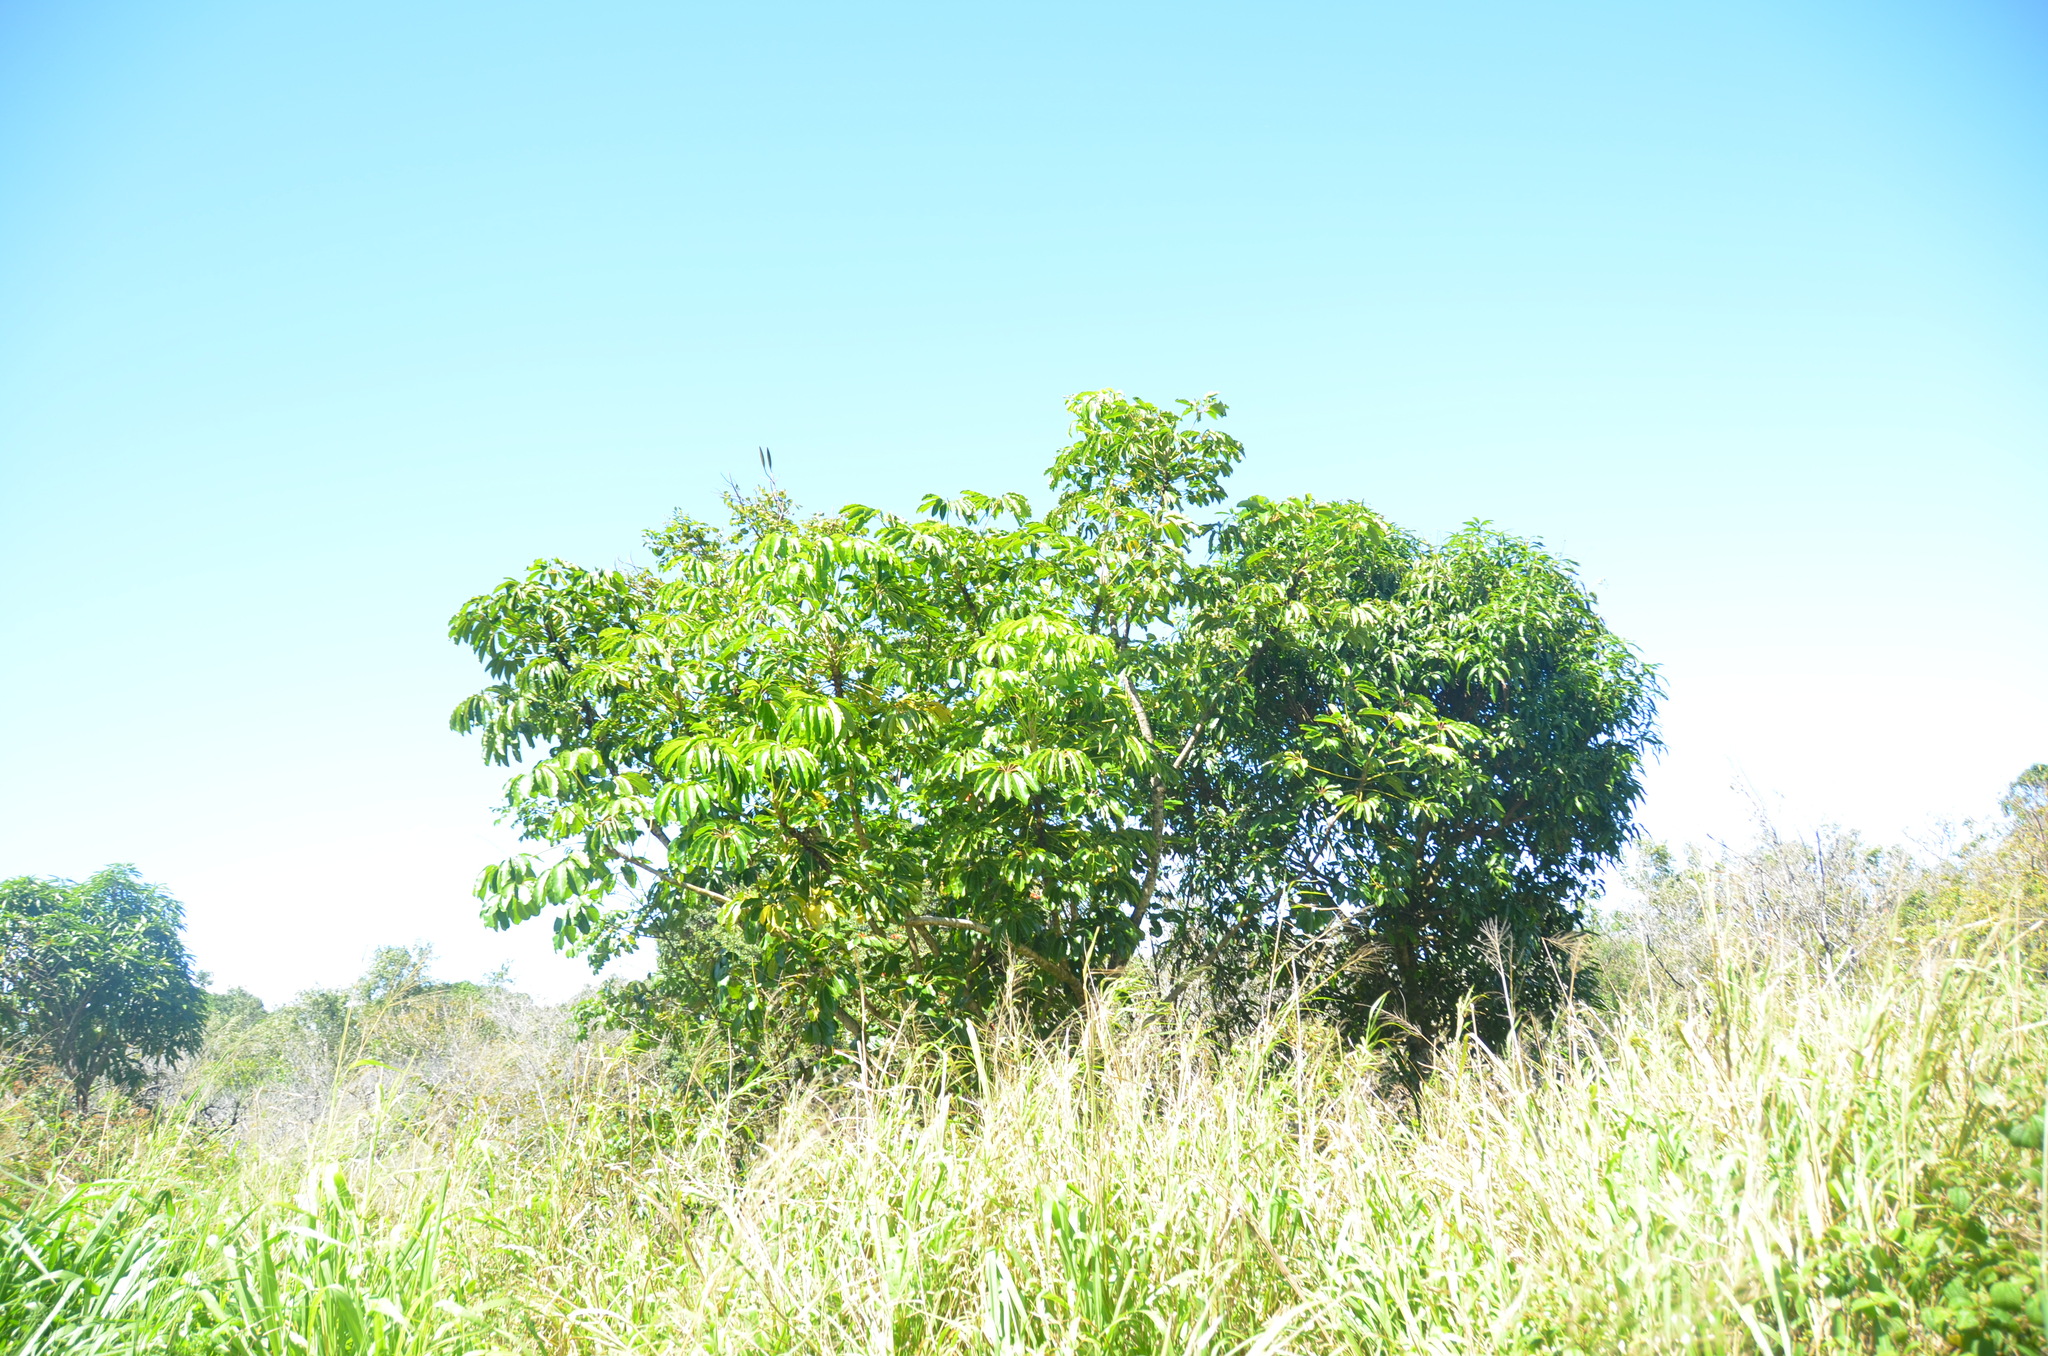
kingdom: Plantae
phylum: Tracheophyta
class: Magnoliopsida
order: Apiales
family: Araliaceae
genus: Heptapleurum
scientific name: Heptapleurum actinophyllum
